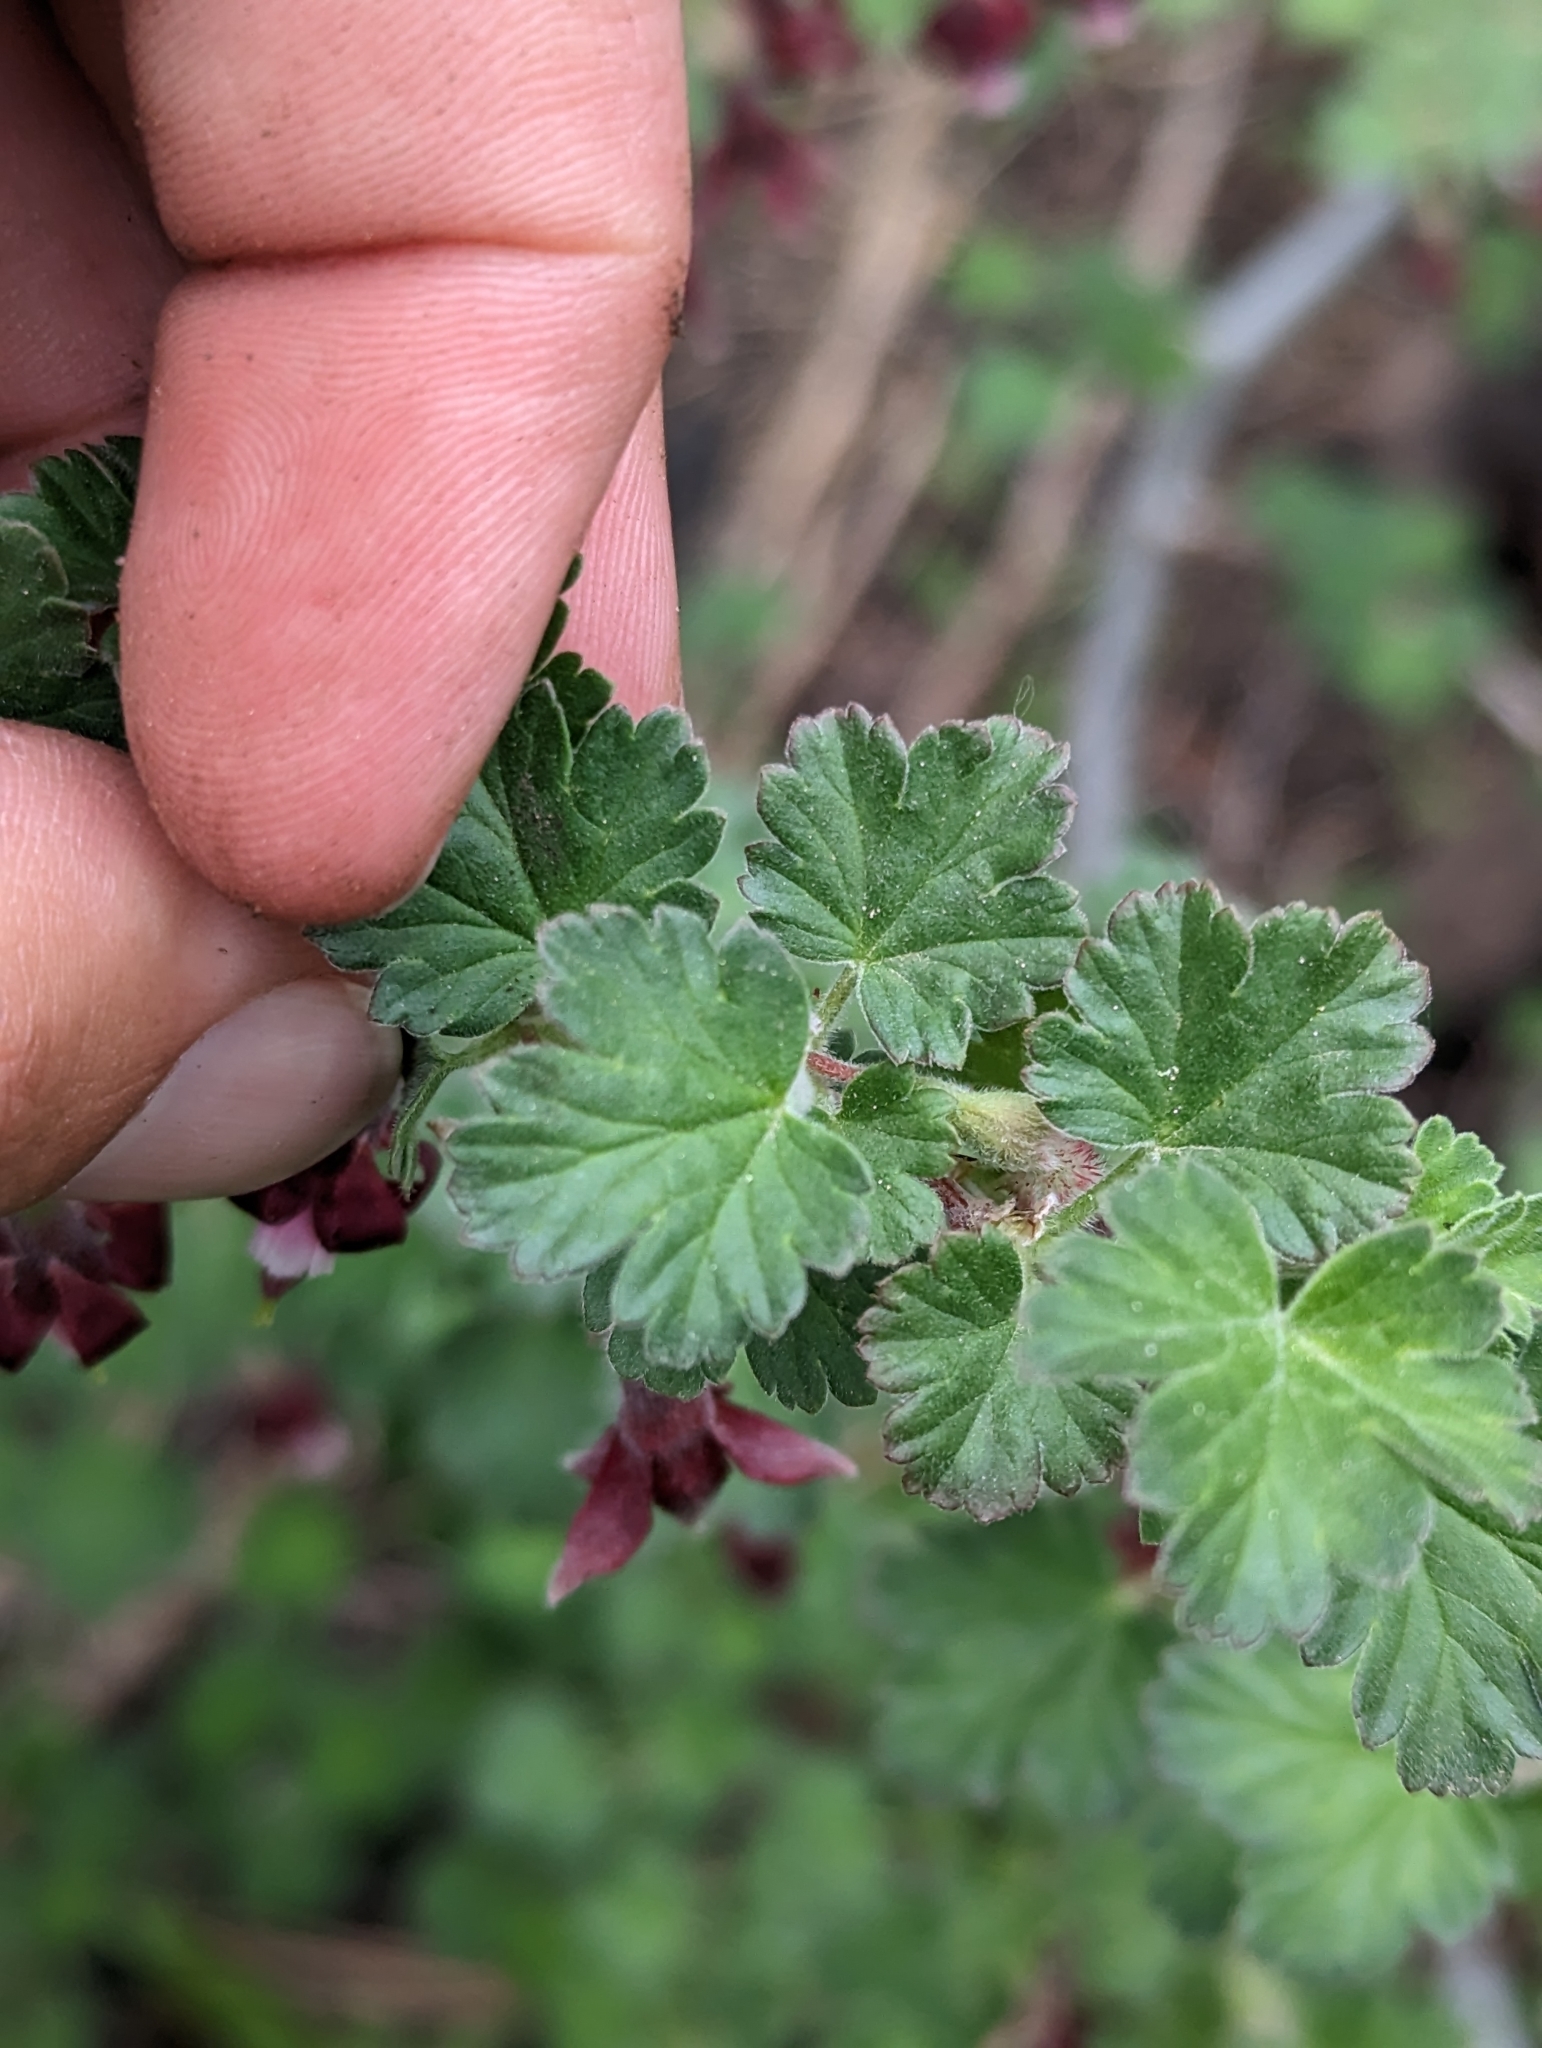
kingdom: Plantae
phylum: Tracheophyta
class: Magnoliopsida
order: Saxifragales
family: Grossulariaceae
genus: Ribes
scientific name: Ribes roezlii
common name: Sierra gooseberry
